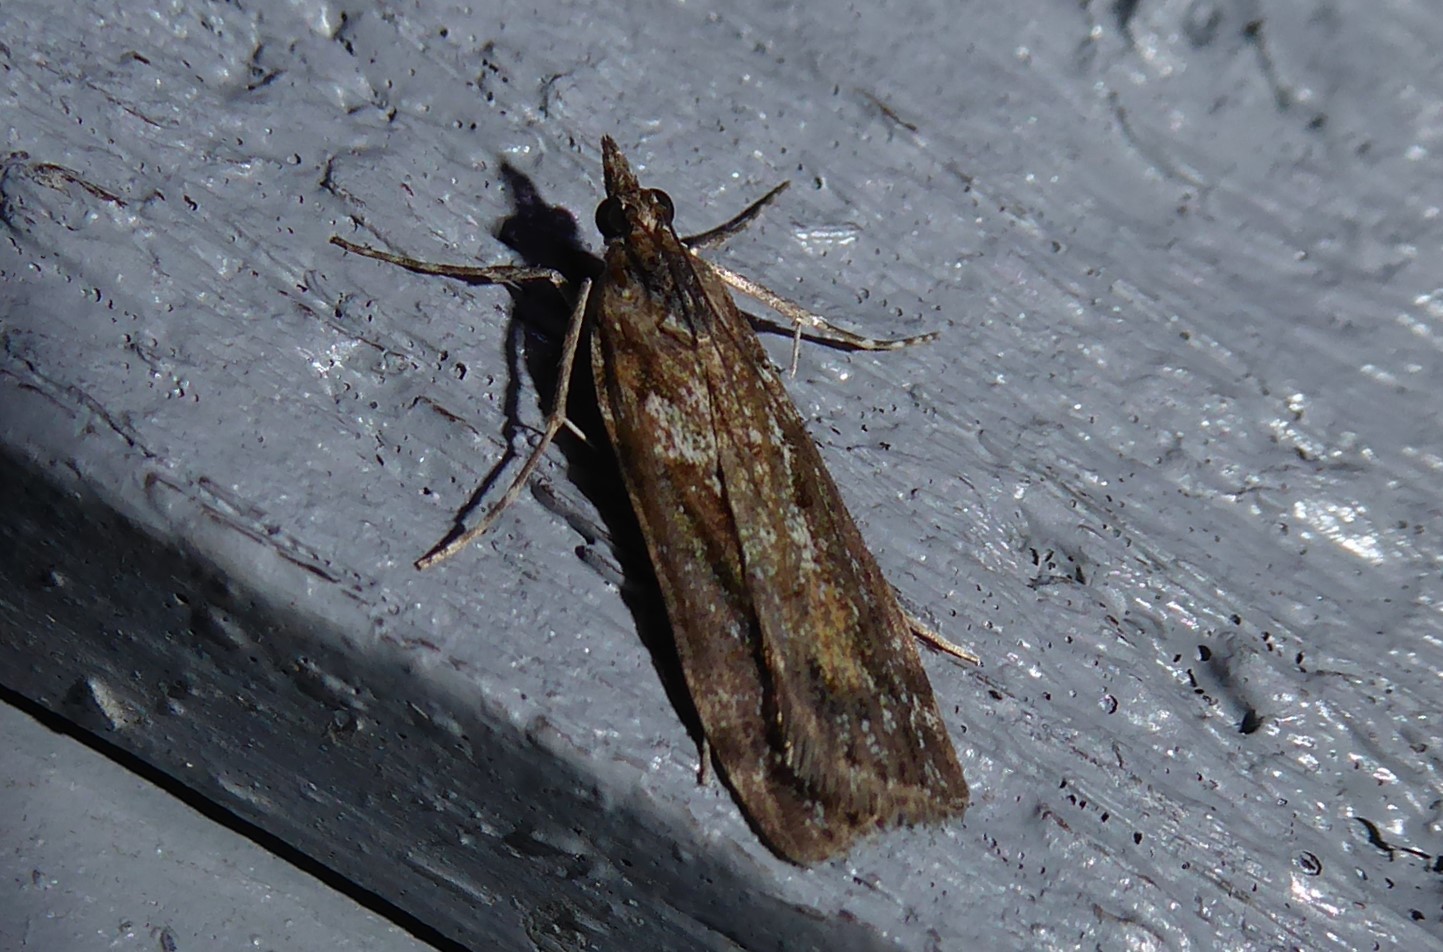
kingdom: Animalia
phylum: Arthropoda
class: Insecta
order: Lepidoptera
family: Crambidae
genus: Eudonia
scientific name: Eudonia submarginalis
